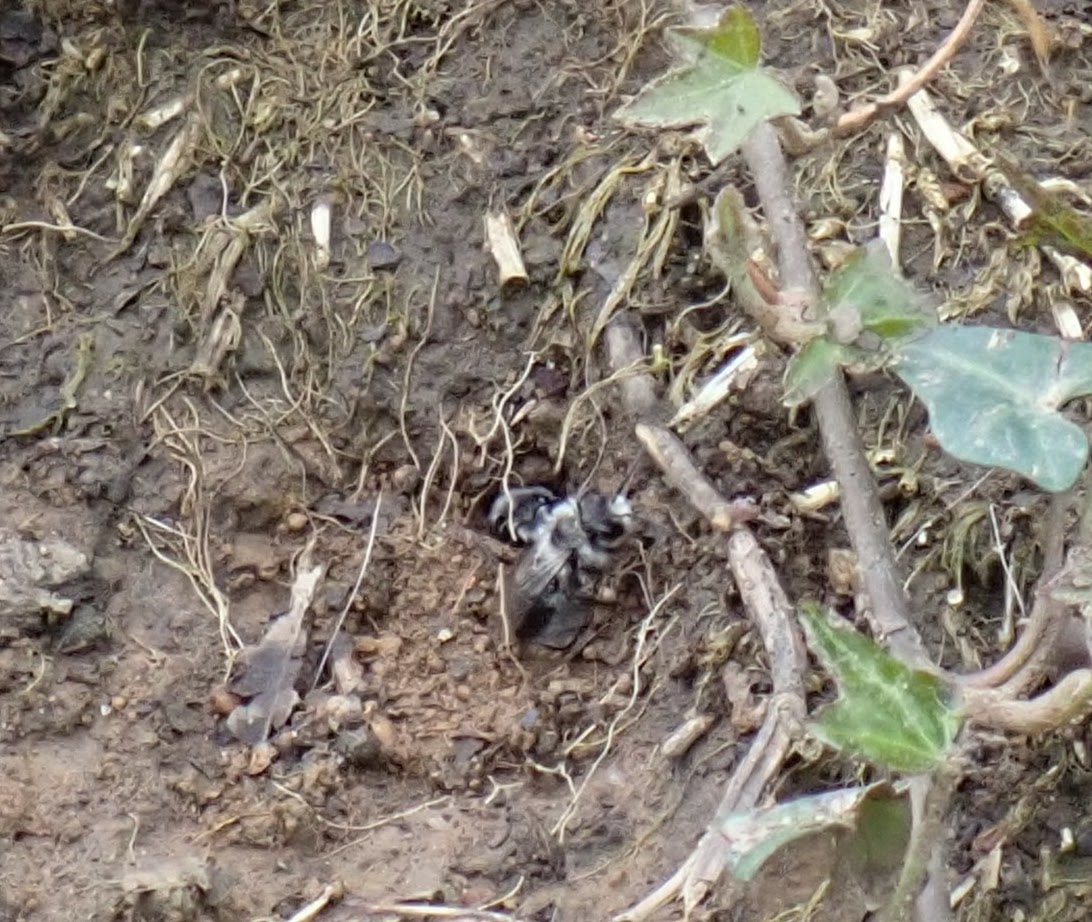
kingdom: Animalia
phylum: Arthropoda
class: Insecta
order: Hymenoptera
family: Andrenidae
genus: Andrena
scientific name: Andrena cineraria
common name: Ashy mining bee
